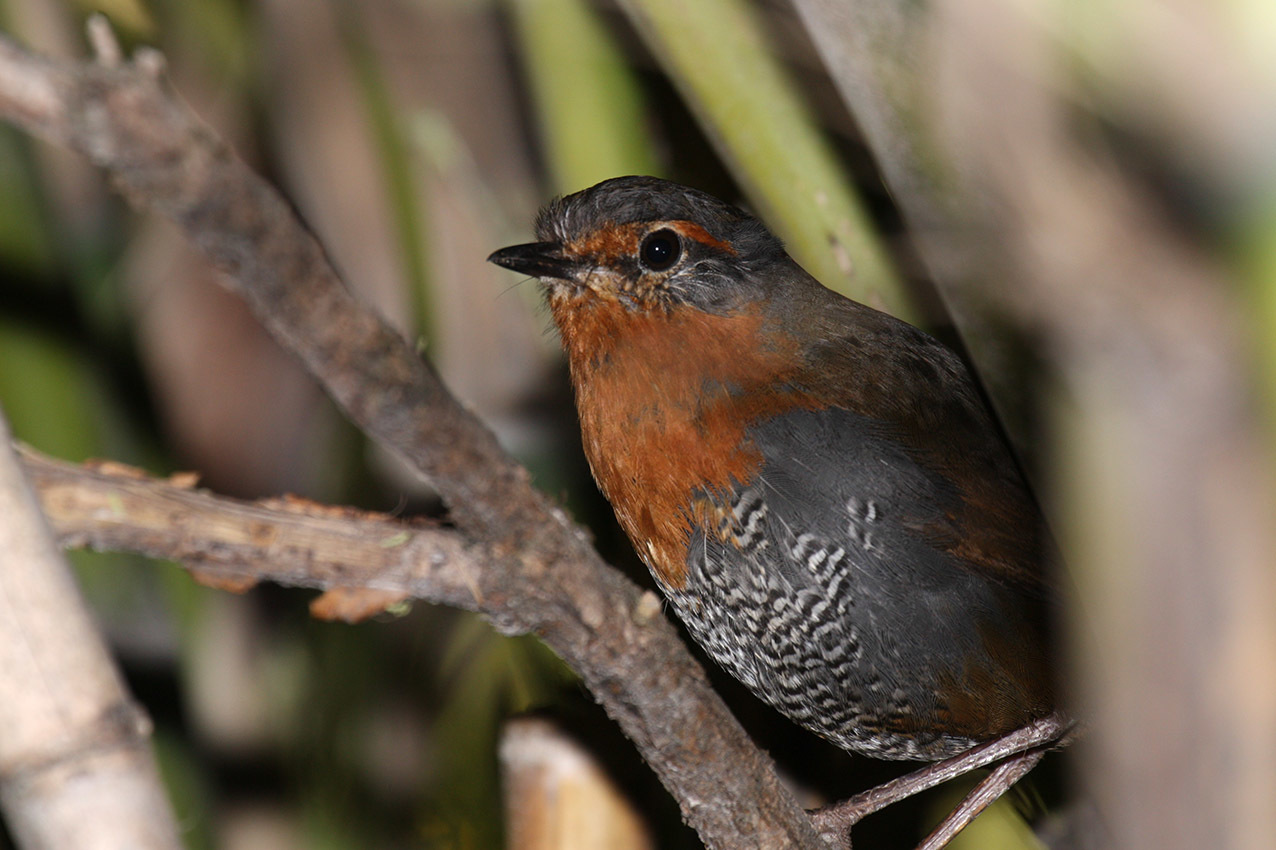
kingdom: Animalia
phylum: Chordata
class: Aves
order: Passeriformes
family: Rhinocryptidae
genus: Scelorchilus
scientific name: Scelorchilus rubecula
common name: Chucao tapaculo
